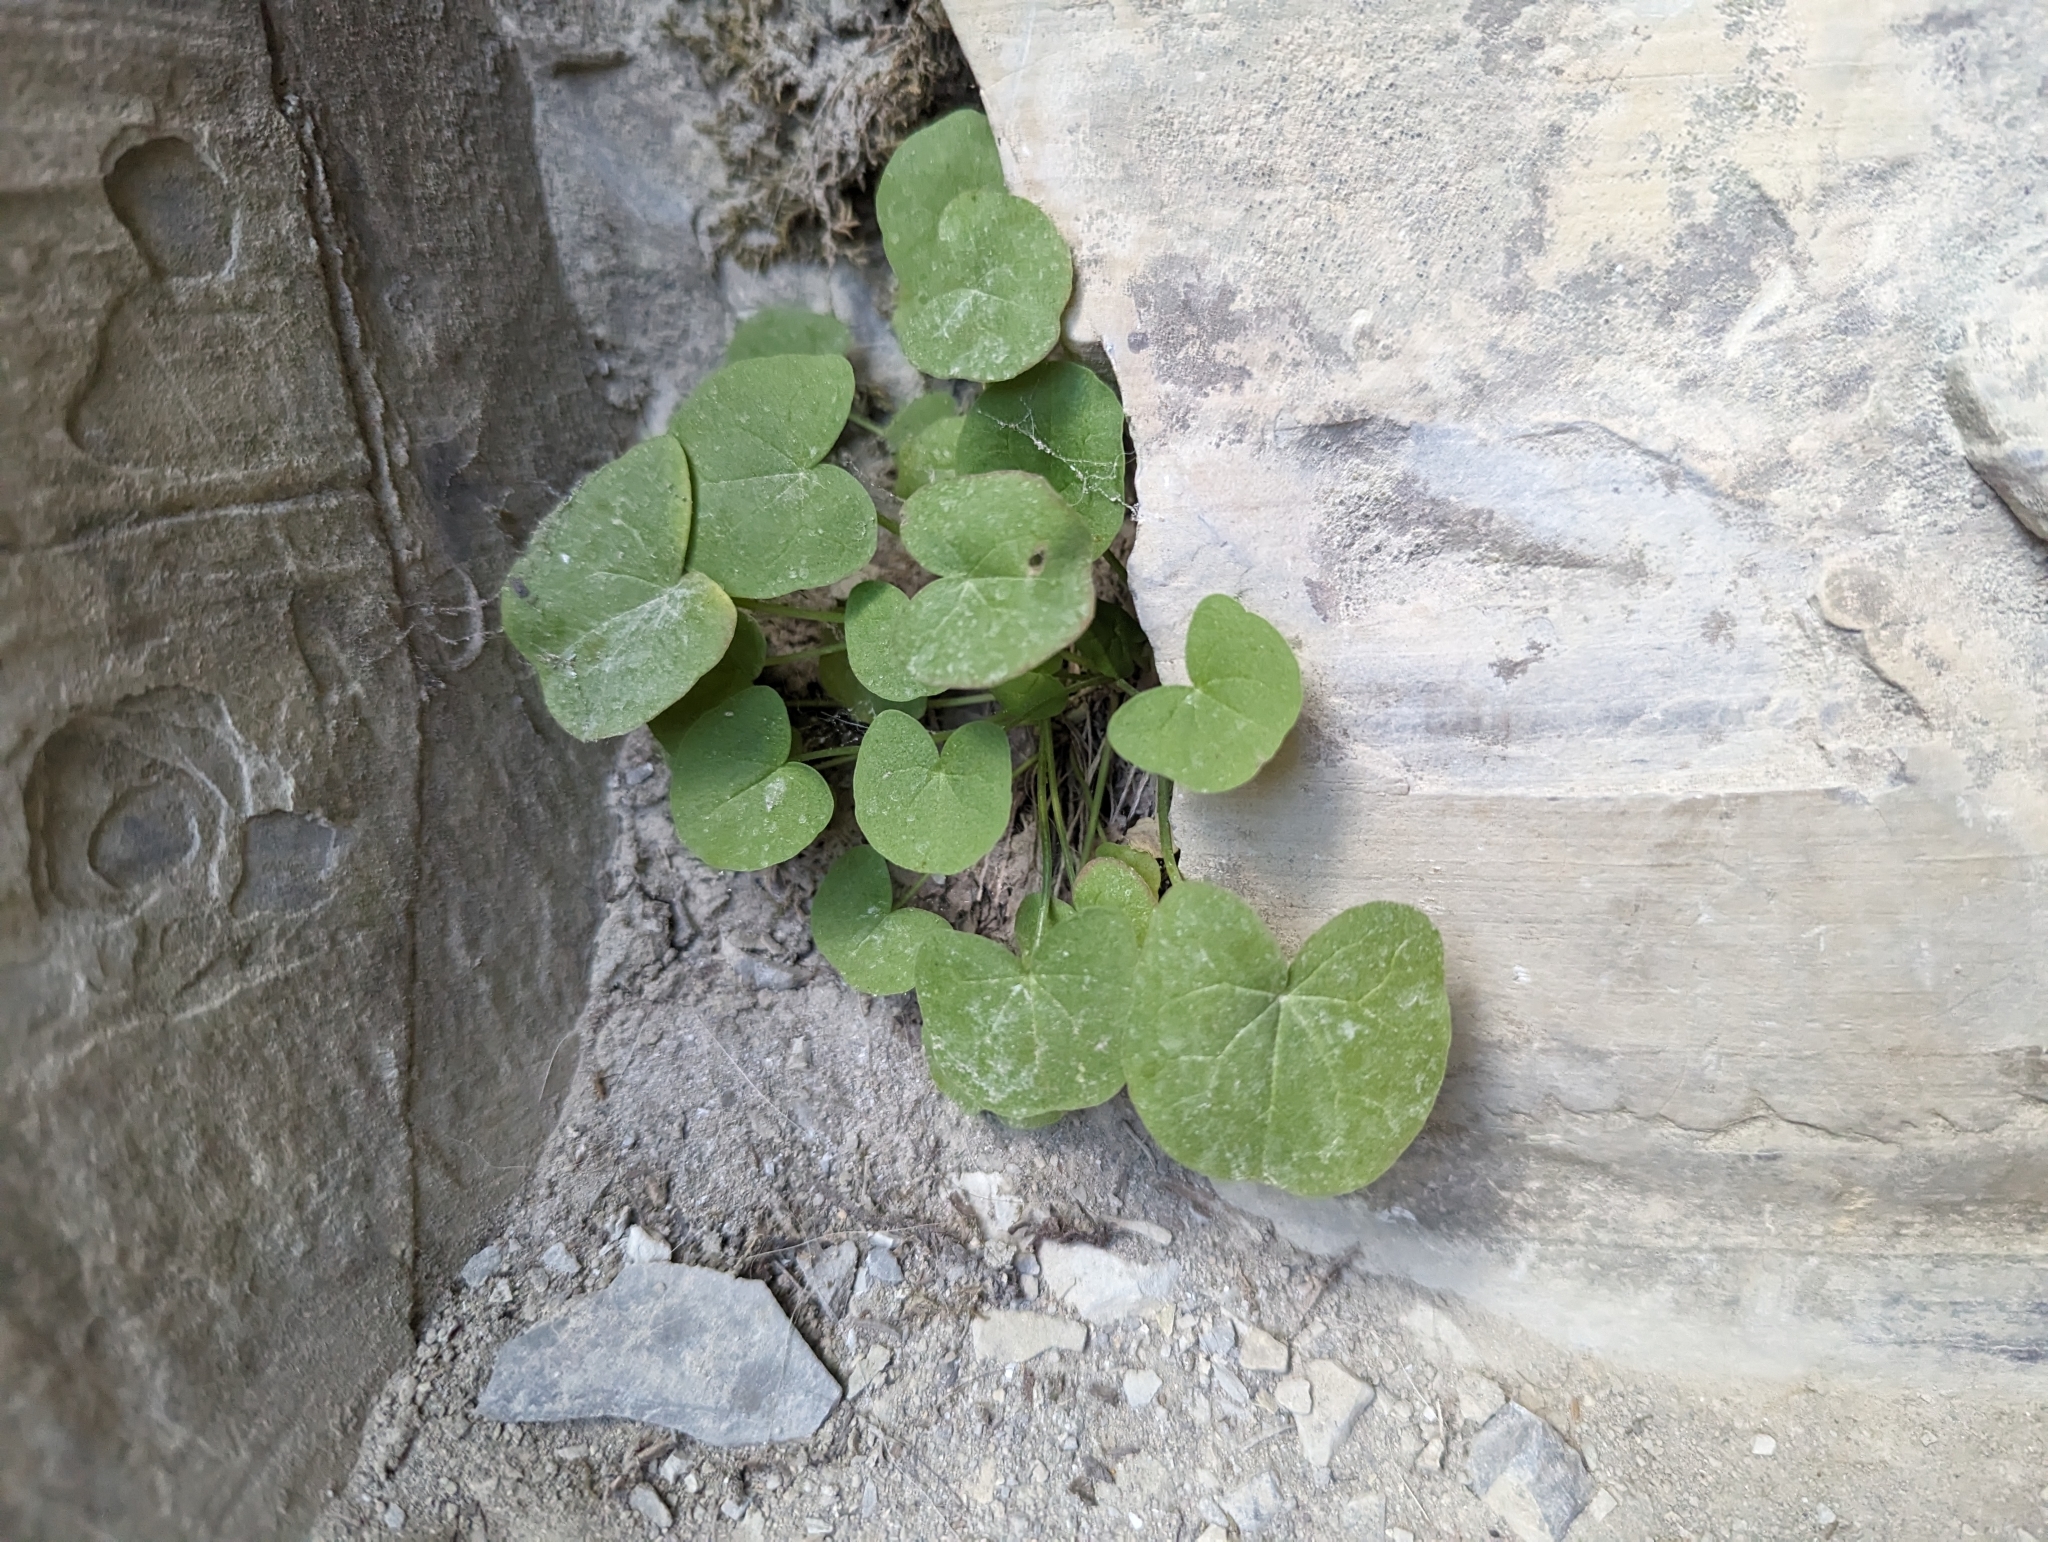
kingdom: Plantae
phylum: Tracheophyta
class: Magnoliopsida
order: Caryophyllales
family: Polygonaceae
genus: Oxyria
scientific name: Oxyria digyna
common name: Alpine mountain-sorrel
